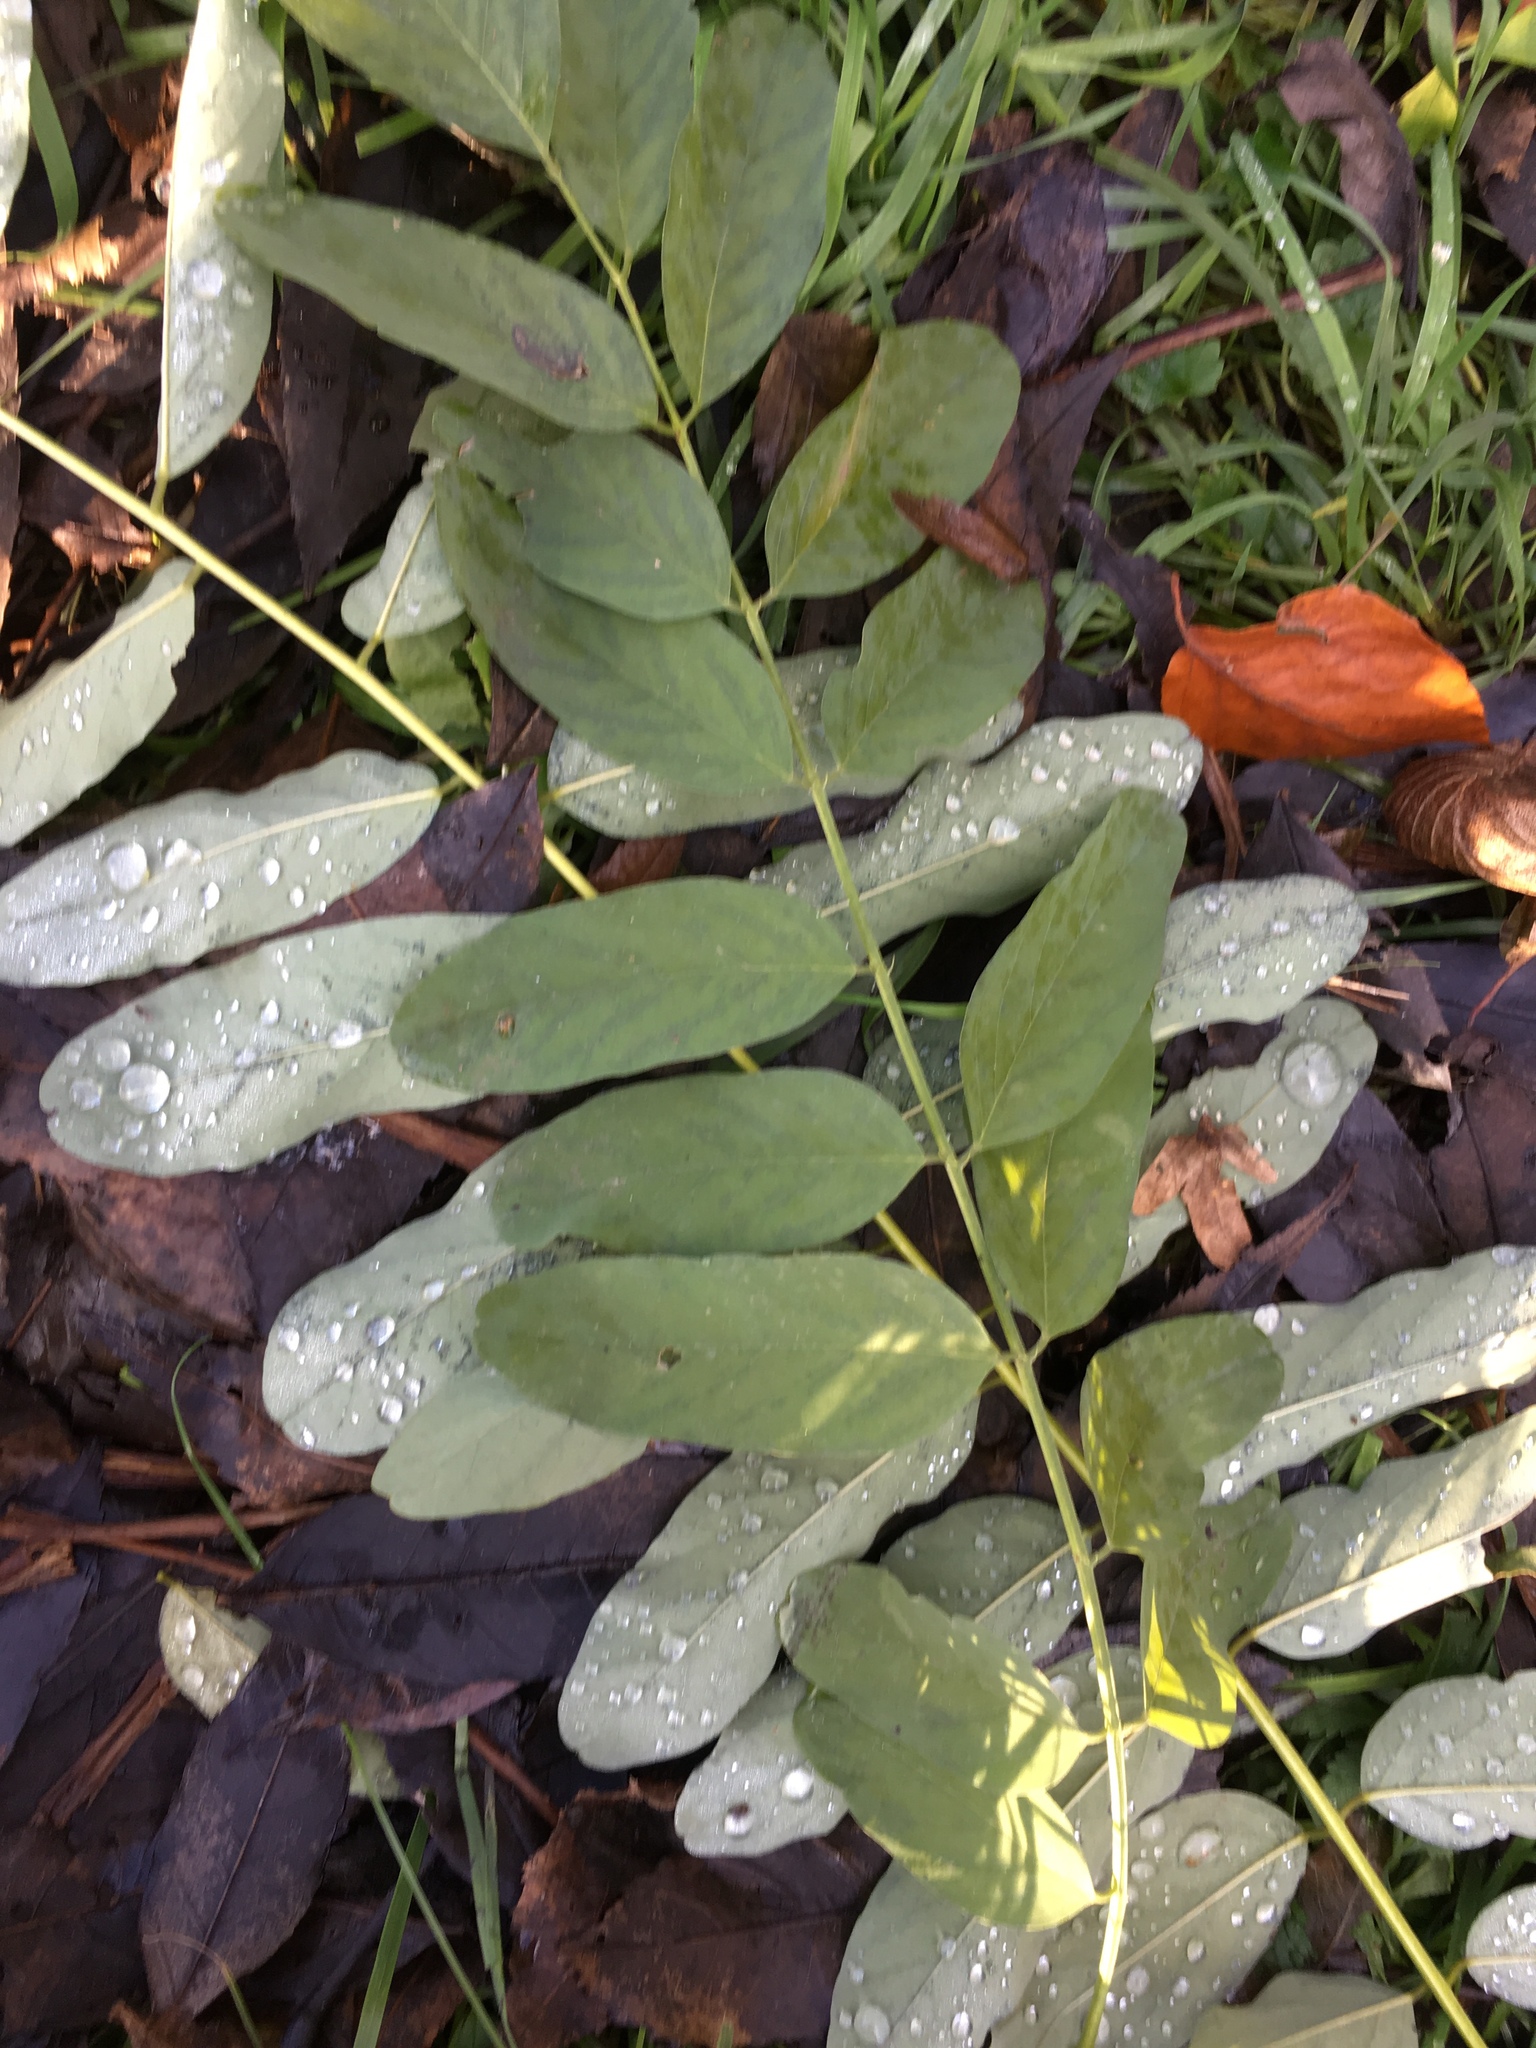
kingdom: Plantae
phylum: Tracheophyta
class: Magnoliopsida
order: Fabales
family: Fabaceae
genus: Robinia
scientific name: Robinia pseudoacacia
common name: Black locust
